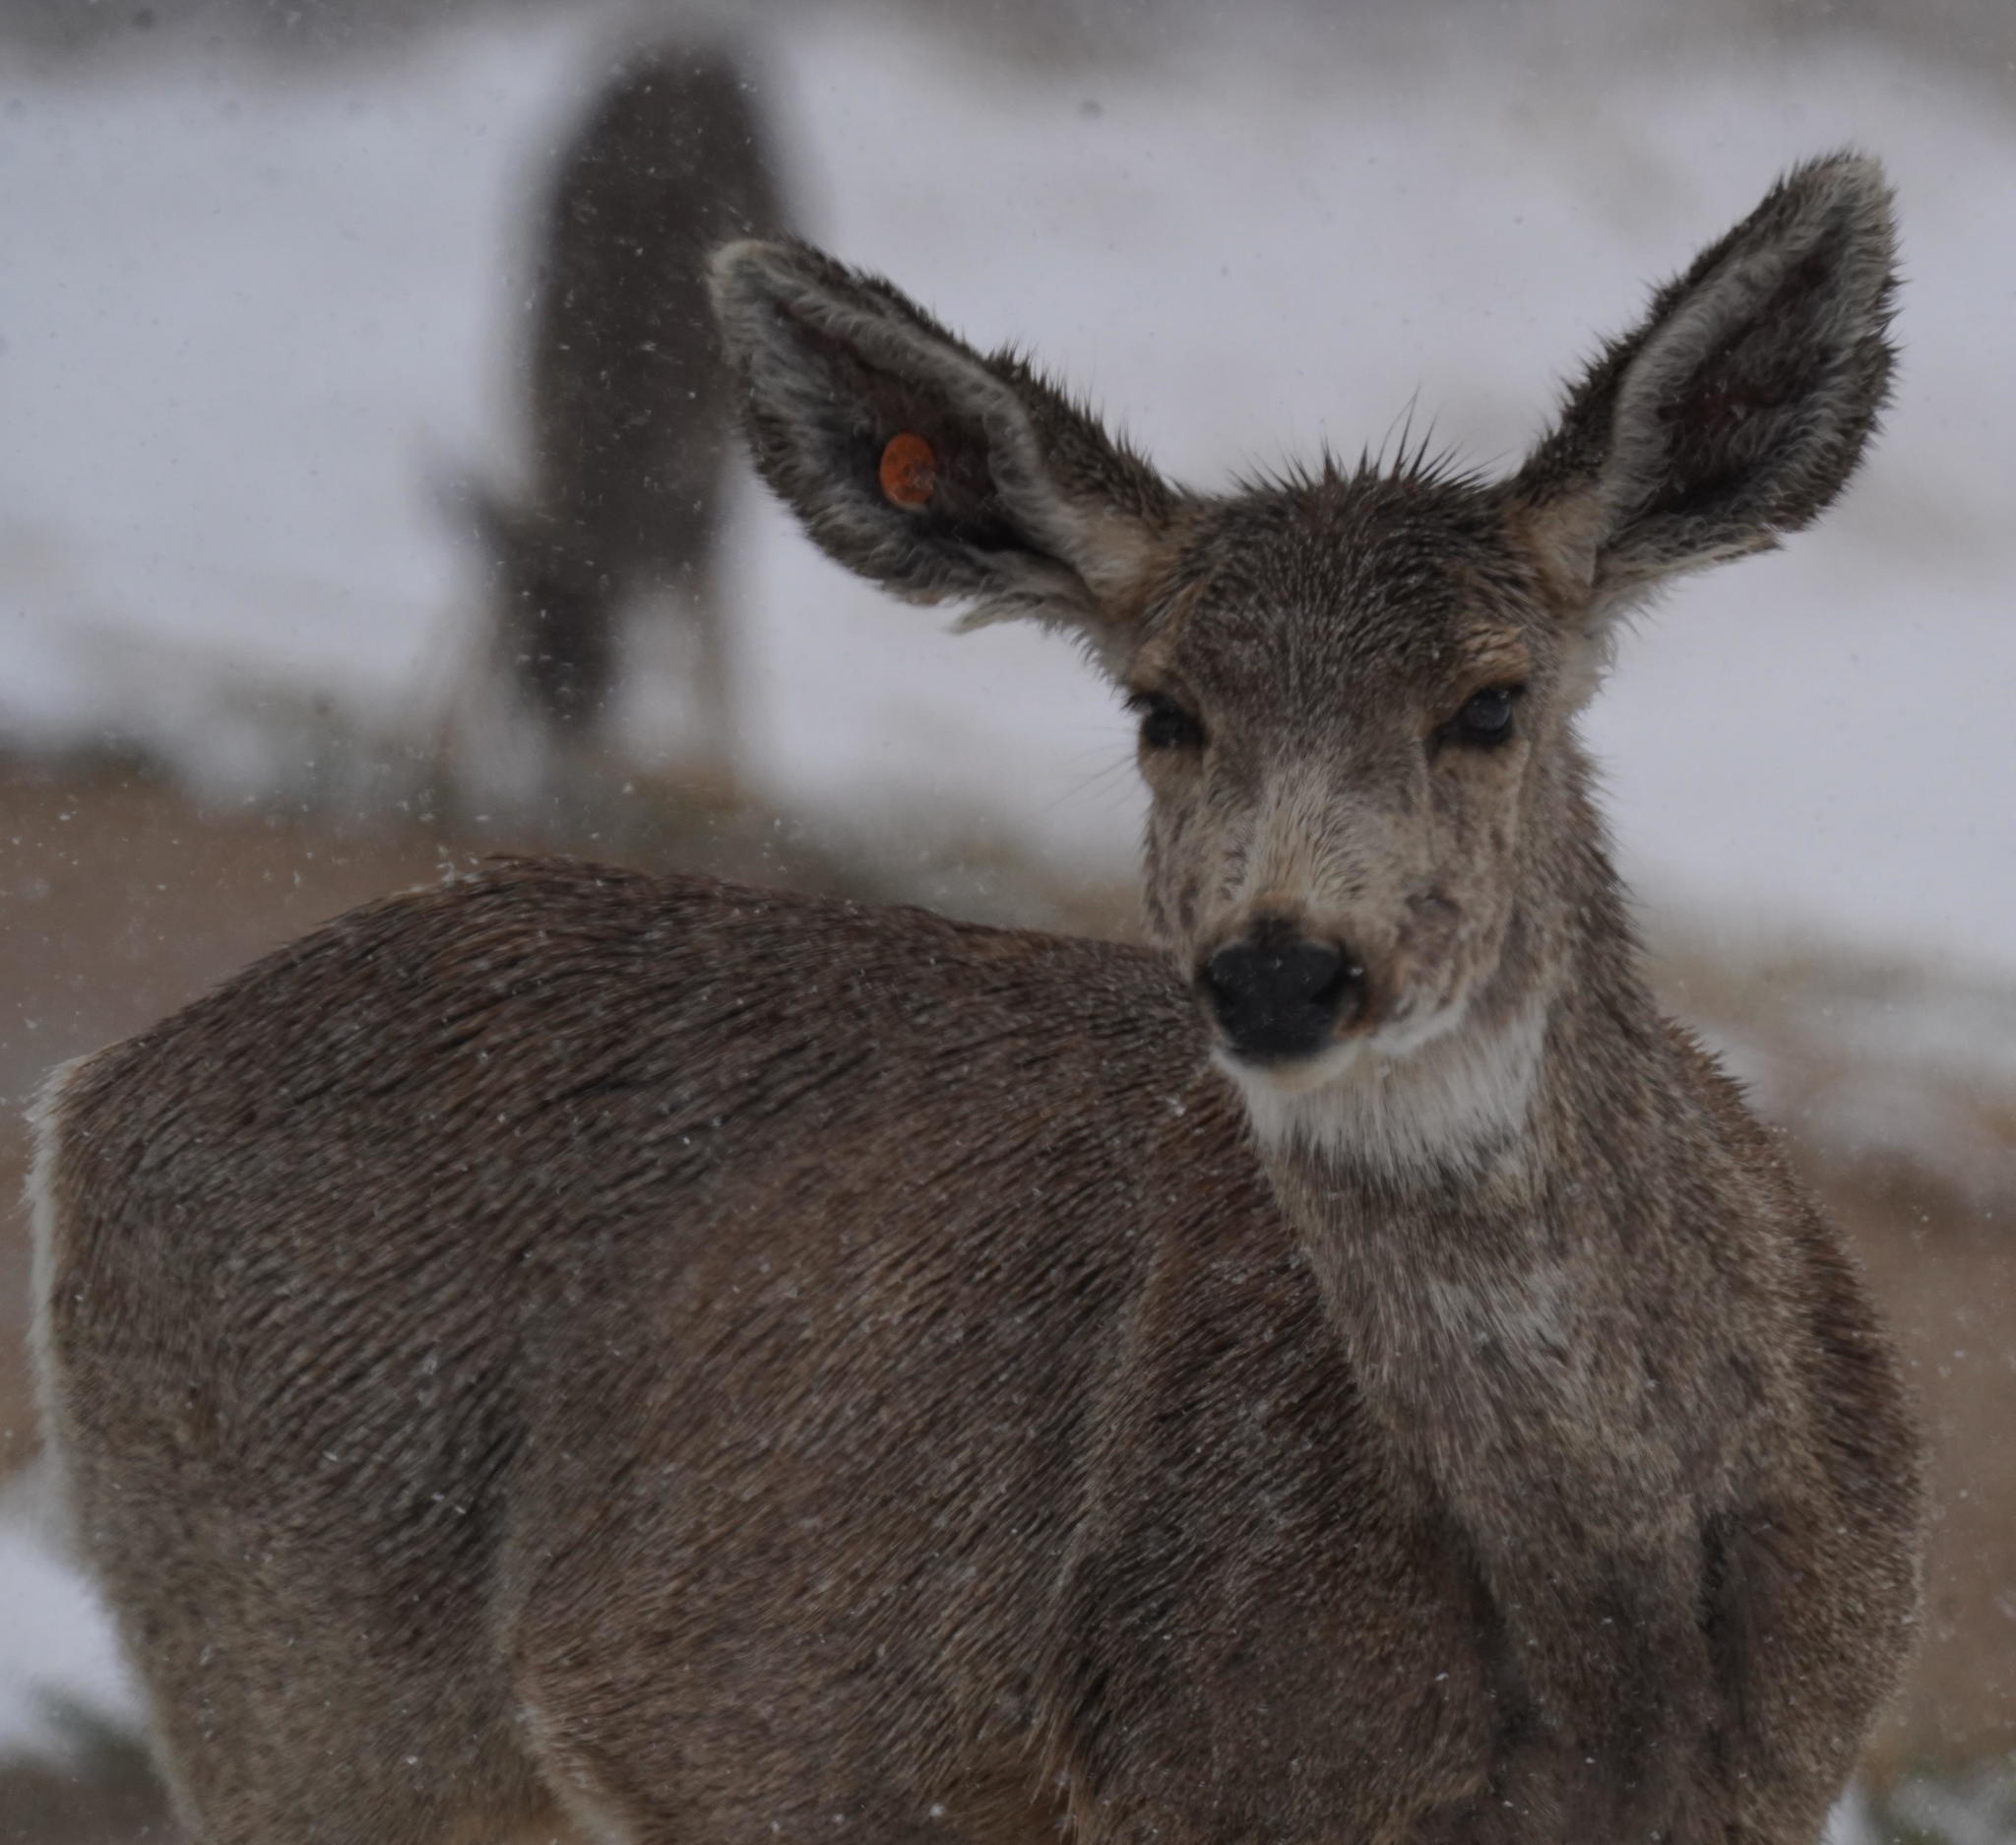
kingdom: Animalia
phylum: Chordata
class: Mammalia
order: Artiodactyla
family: Cervidae
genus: Odocoileus
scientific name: Odocoileus hemionus
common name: Mule deer
